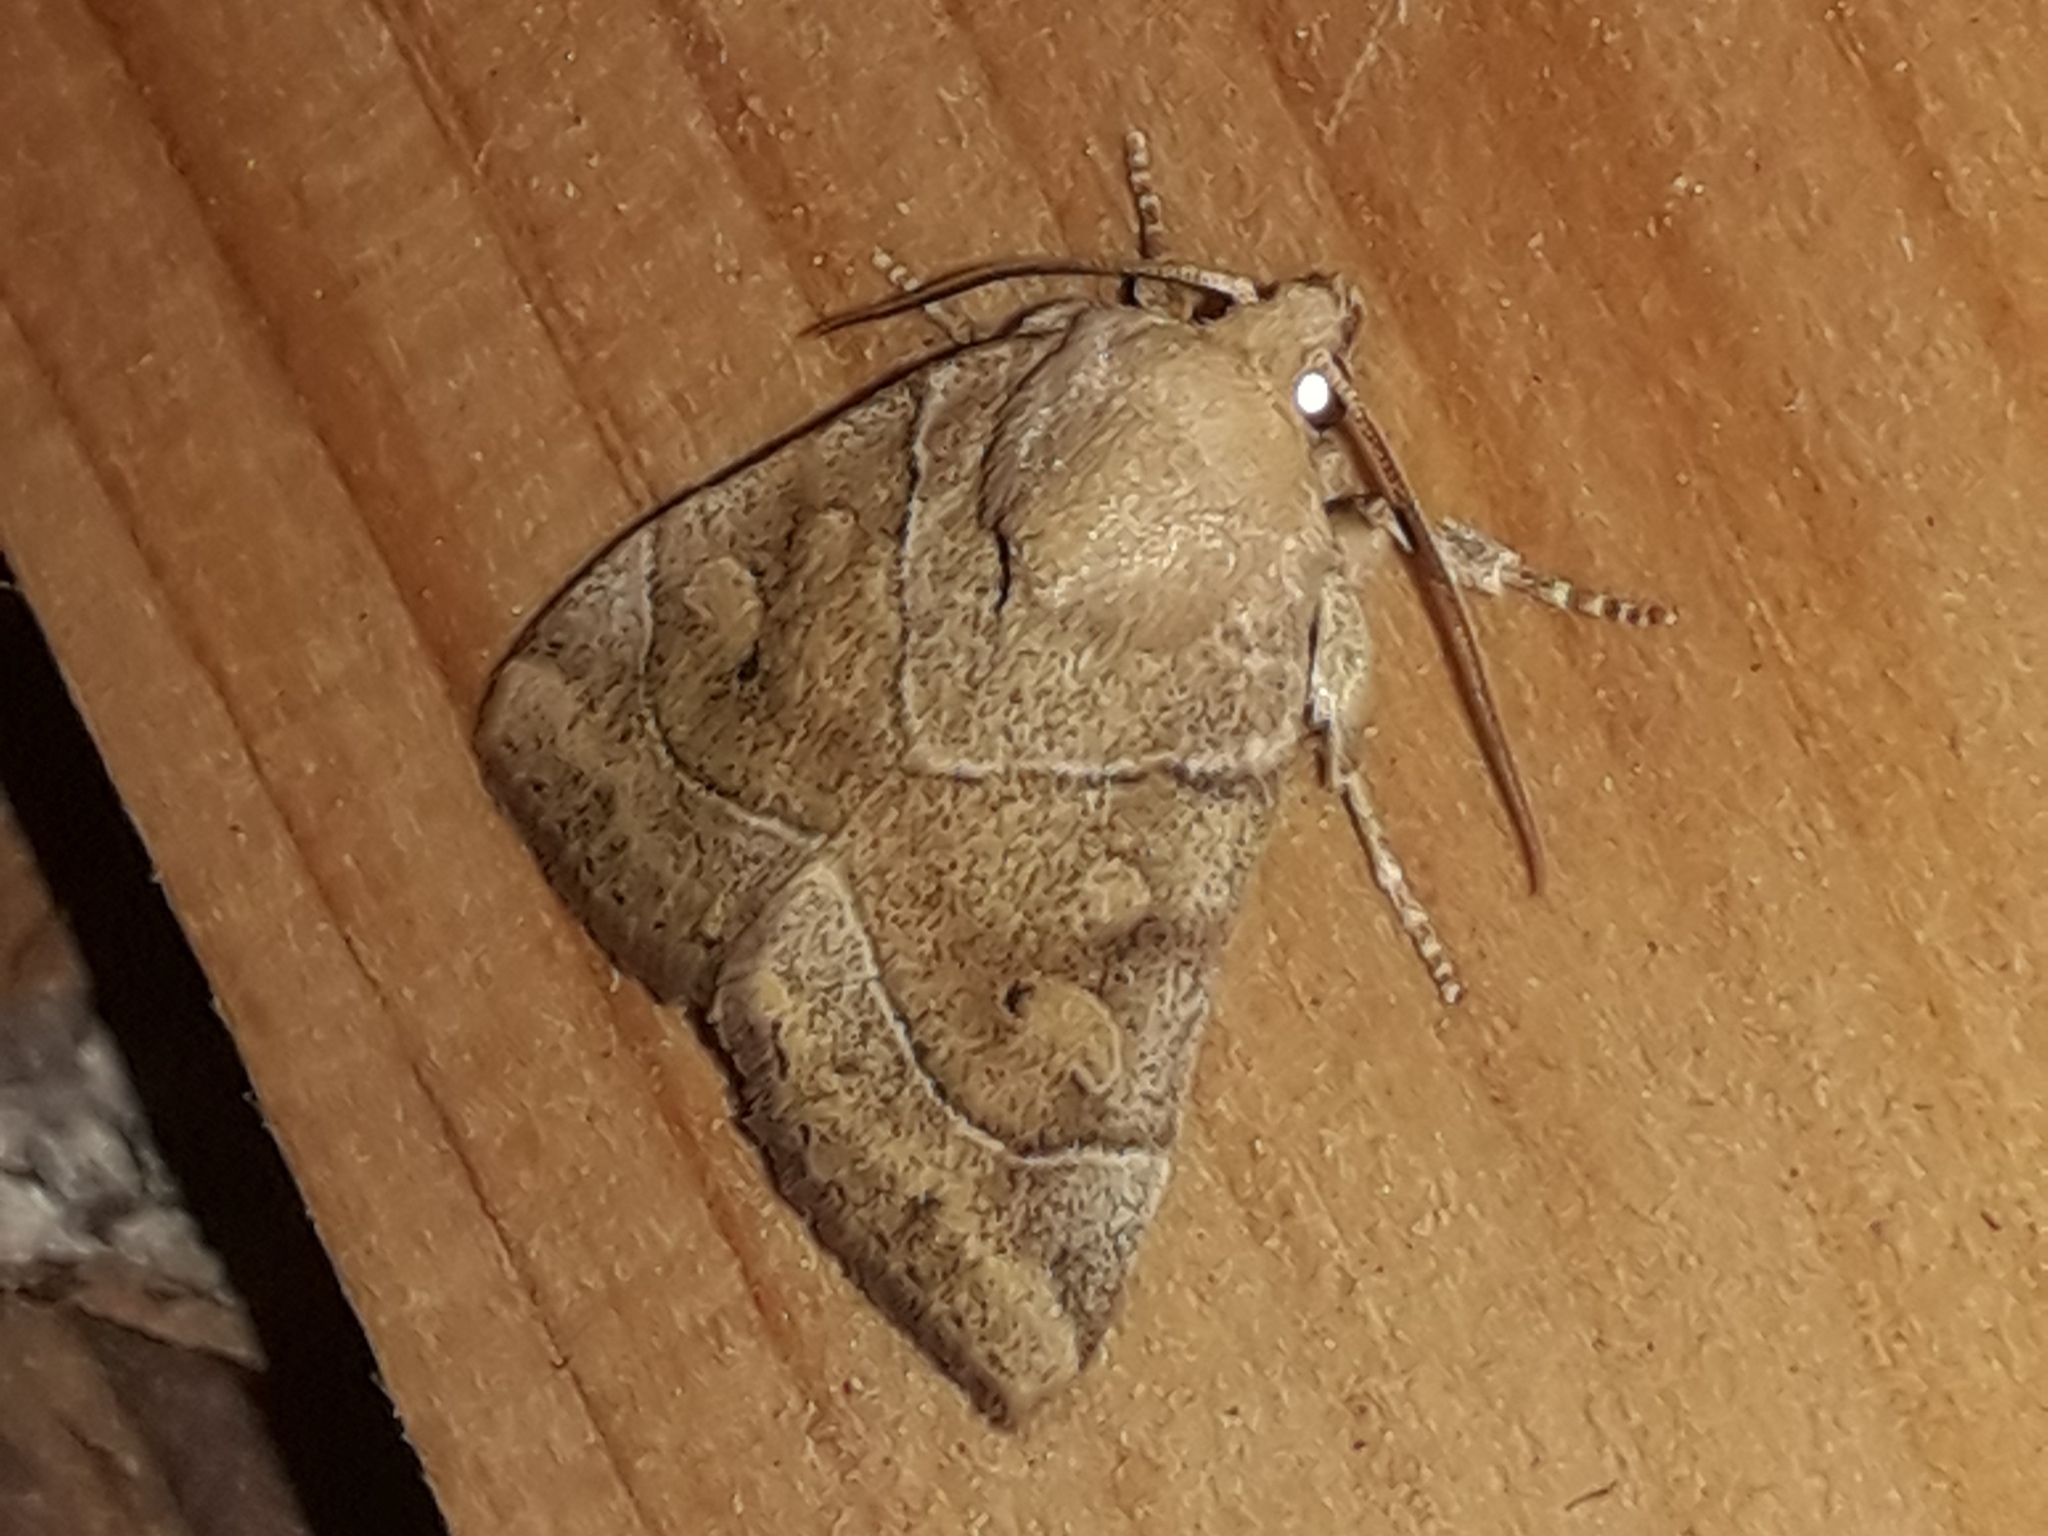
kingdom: Animalia
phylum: Arthropoda
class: Insecta
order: Lepidoptera
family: Noctuidae
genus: Cosmia
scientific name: Cosmia trapezina
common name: Dun-bar
